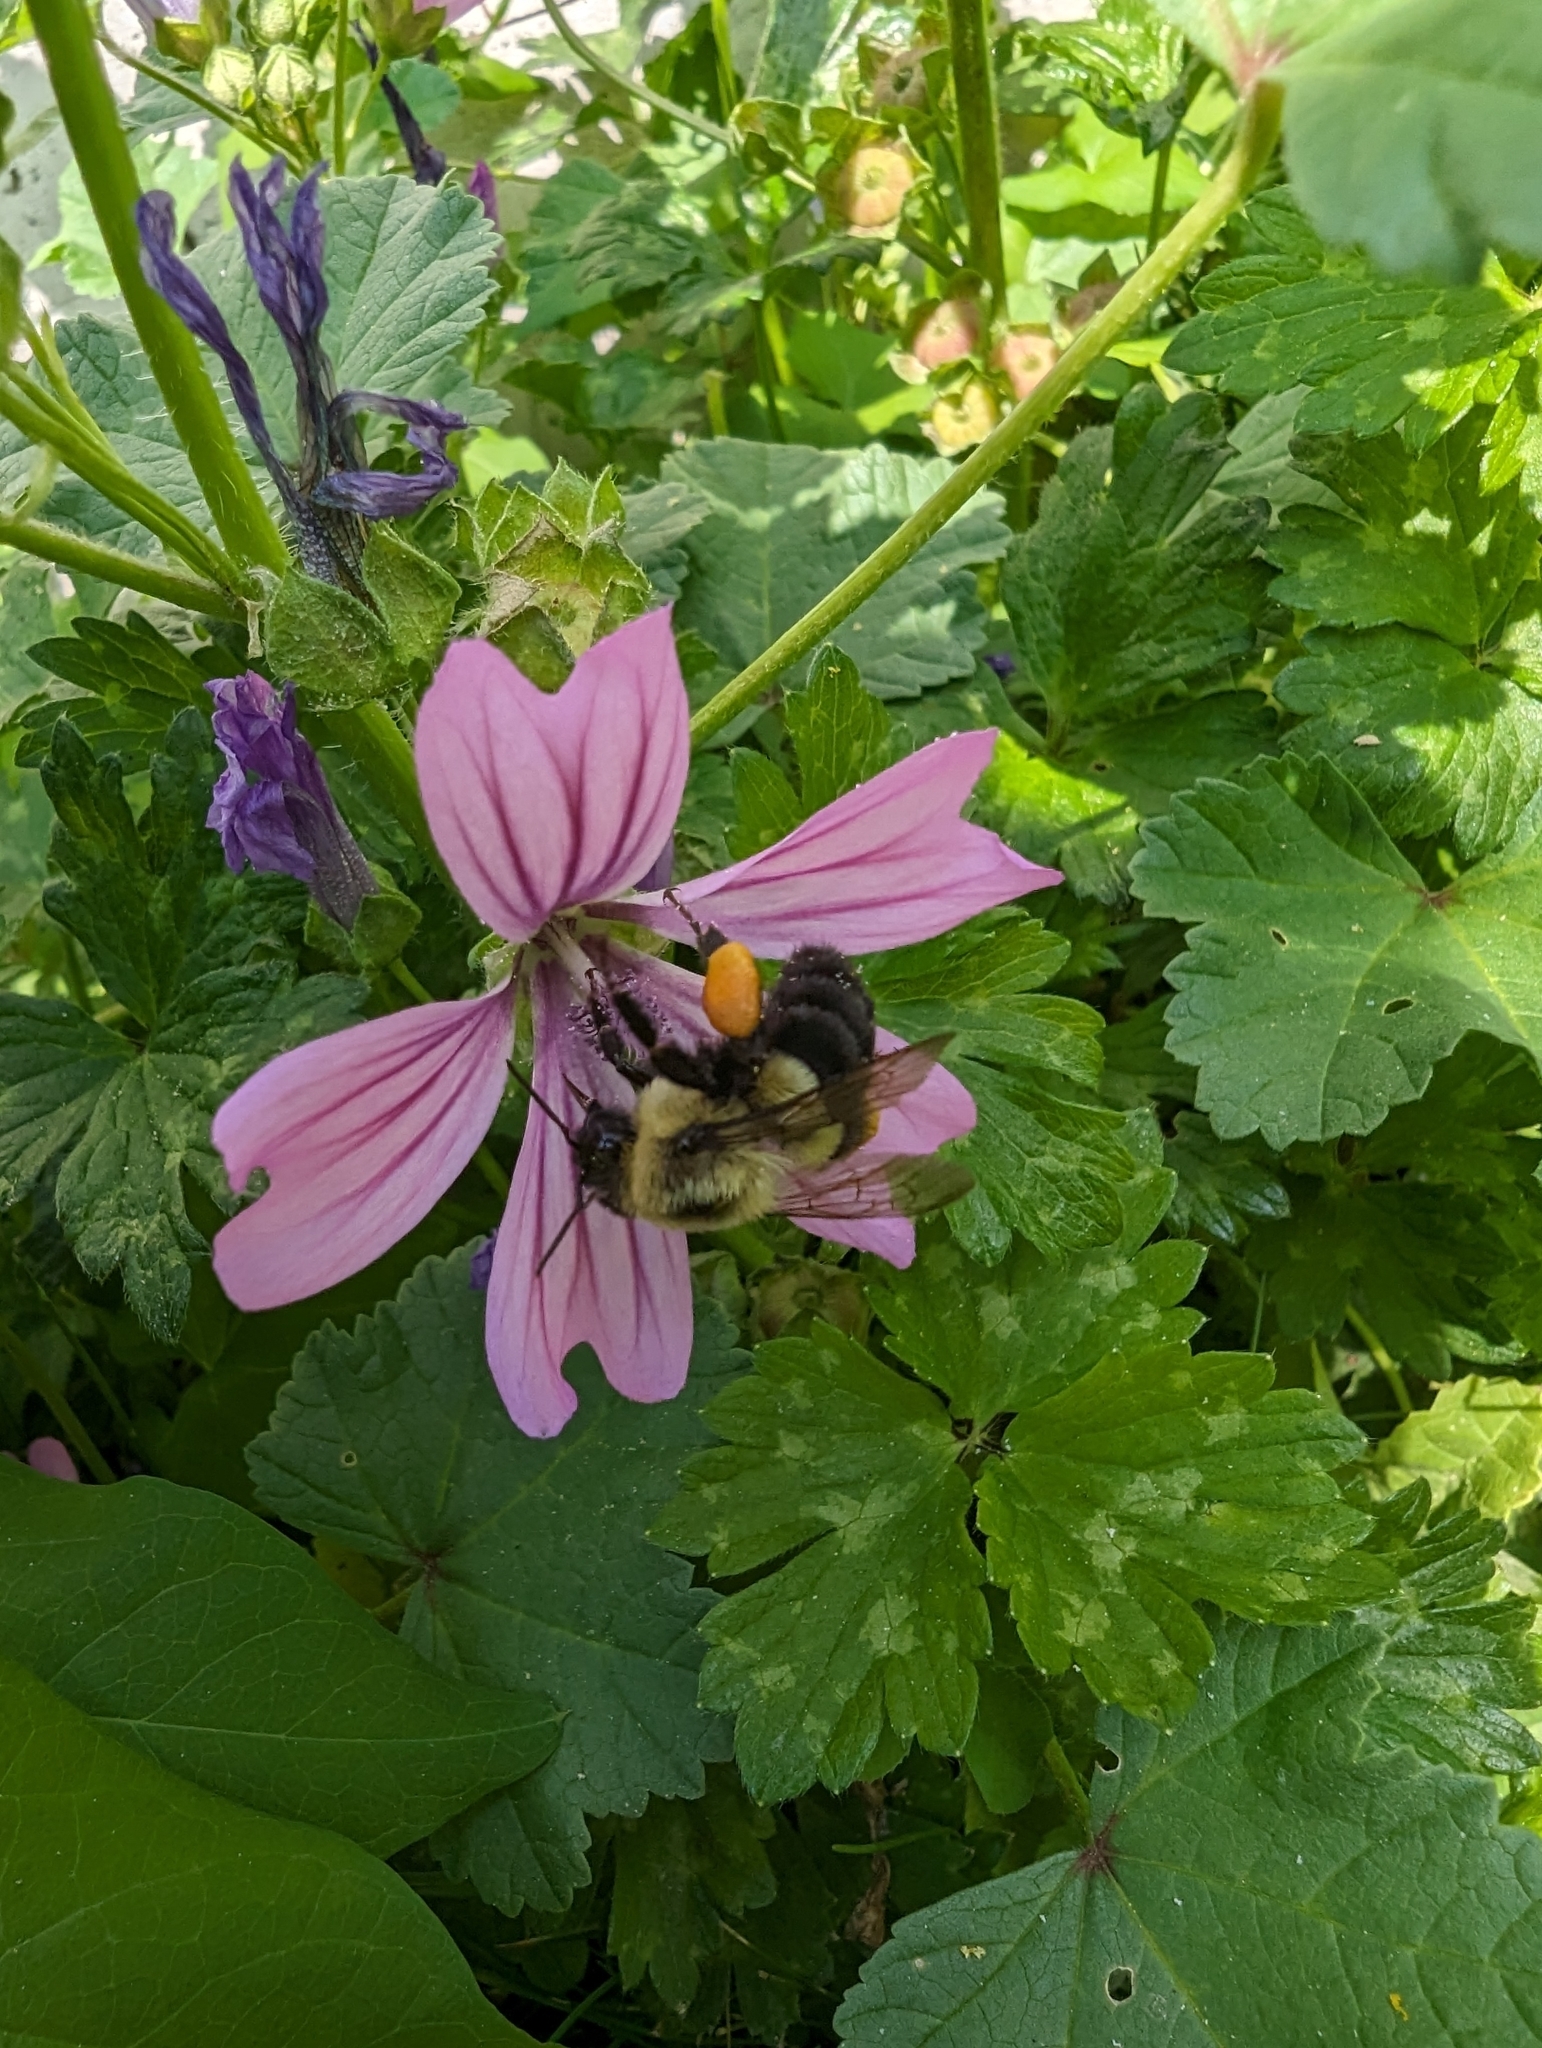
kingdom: Animalia
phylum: Arthropoda
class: Insecta
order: Hymenoptera
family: Apidae
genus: Bombus
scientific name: Bombus impatiens
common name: Common eastern bumble bee
